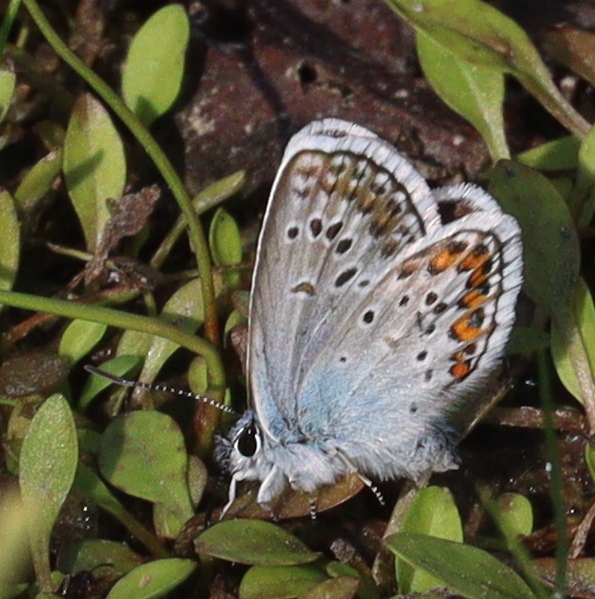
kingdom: Animalia
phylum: Arthropoda
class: Insecta
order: Lepidoptera
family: Lycaenidae
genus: Plebejus
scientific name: Plebejus argus
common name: Silver-studded blue
